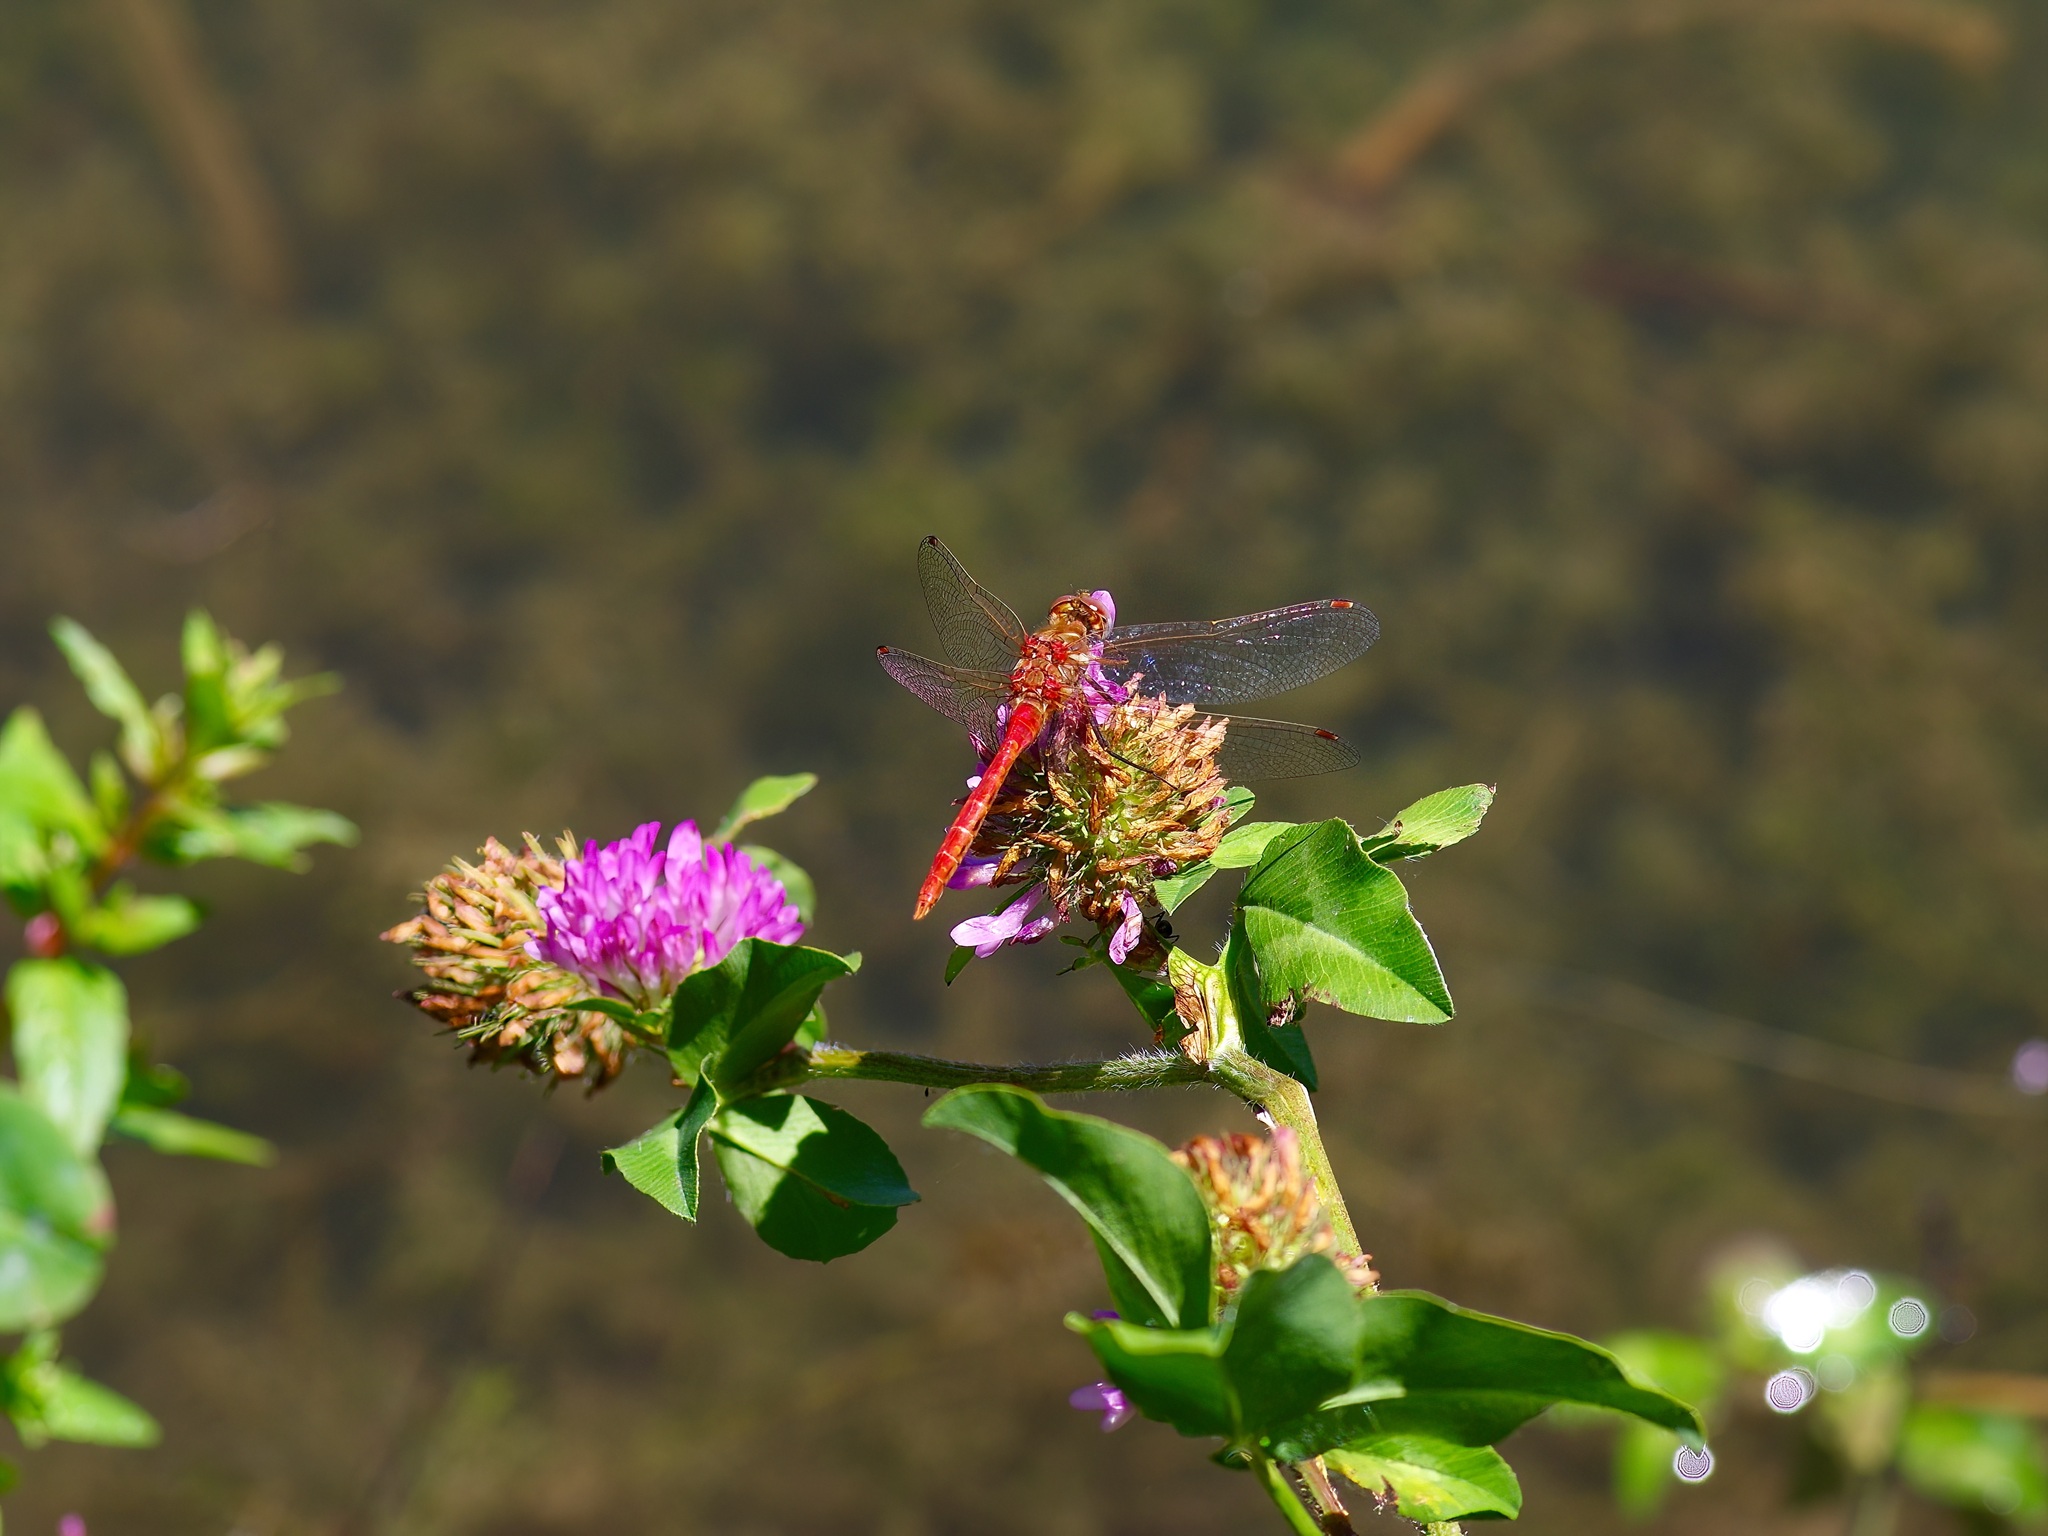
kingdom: Animalia
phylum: Arthropoda
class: Insecta
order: Odonata
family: Libellulidae
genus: Sympetrum
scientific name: Sympetrum pallipes
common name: Striped meadowhawk
